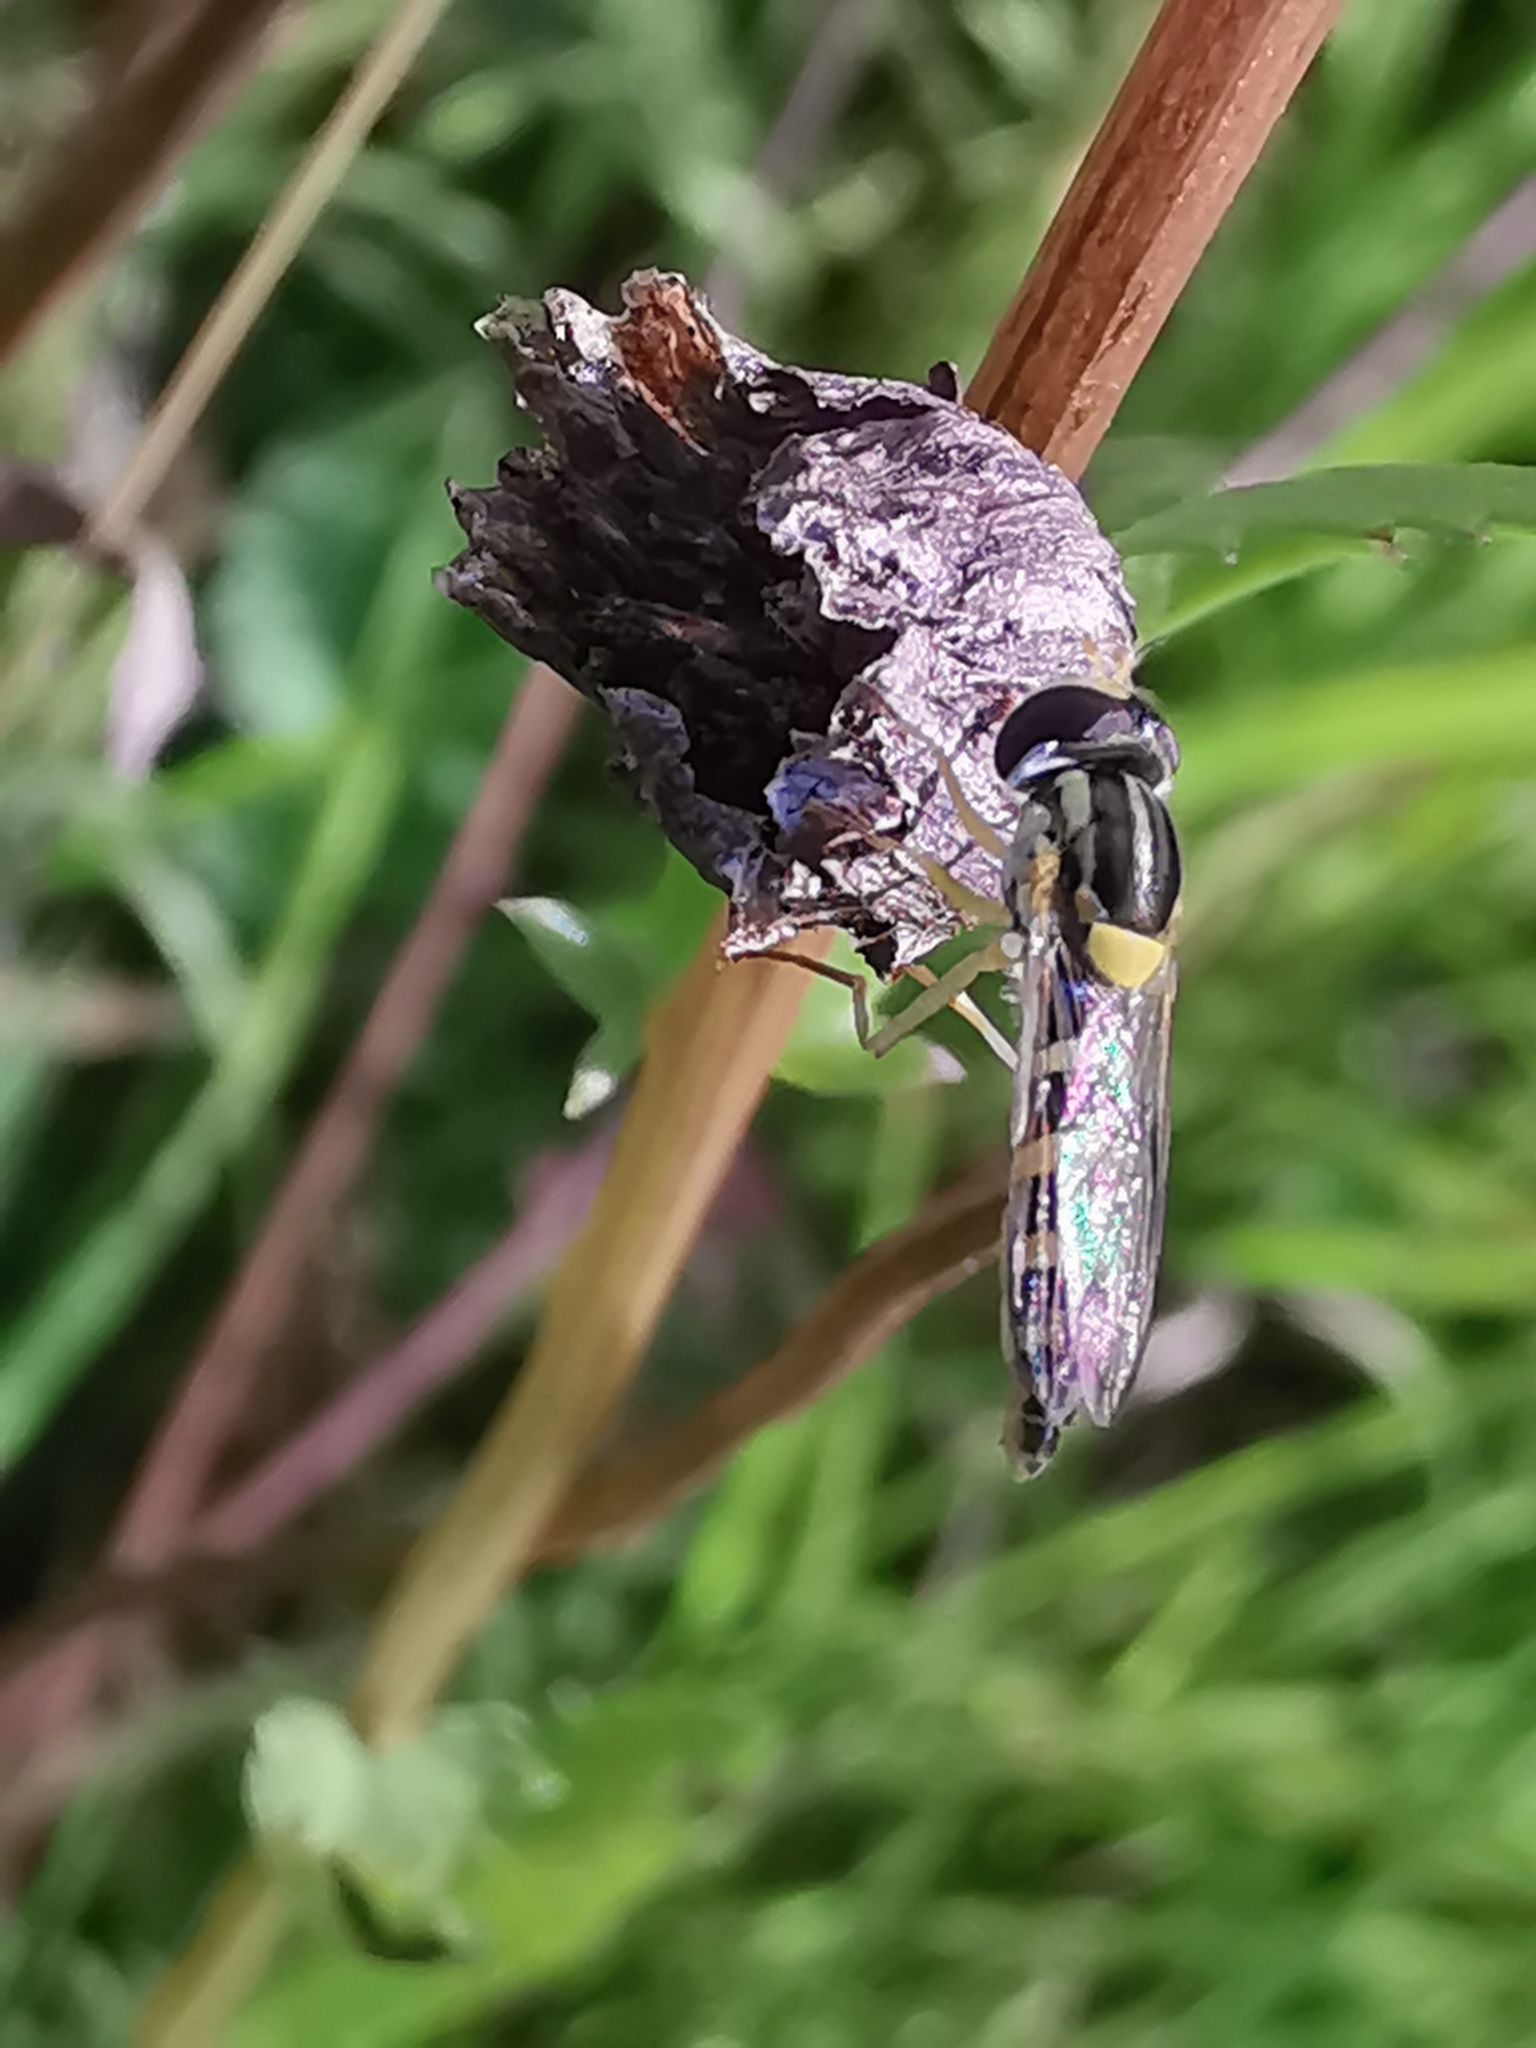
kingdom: Animalia
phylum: Arthropoda
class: Insecta
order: Diptera
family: Syrphidae
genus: Sphaerophoria
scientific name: Sphaerophoria
